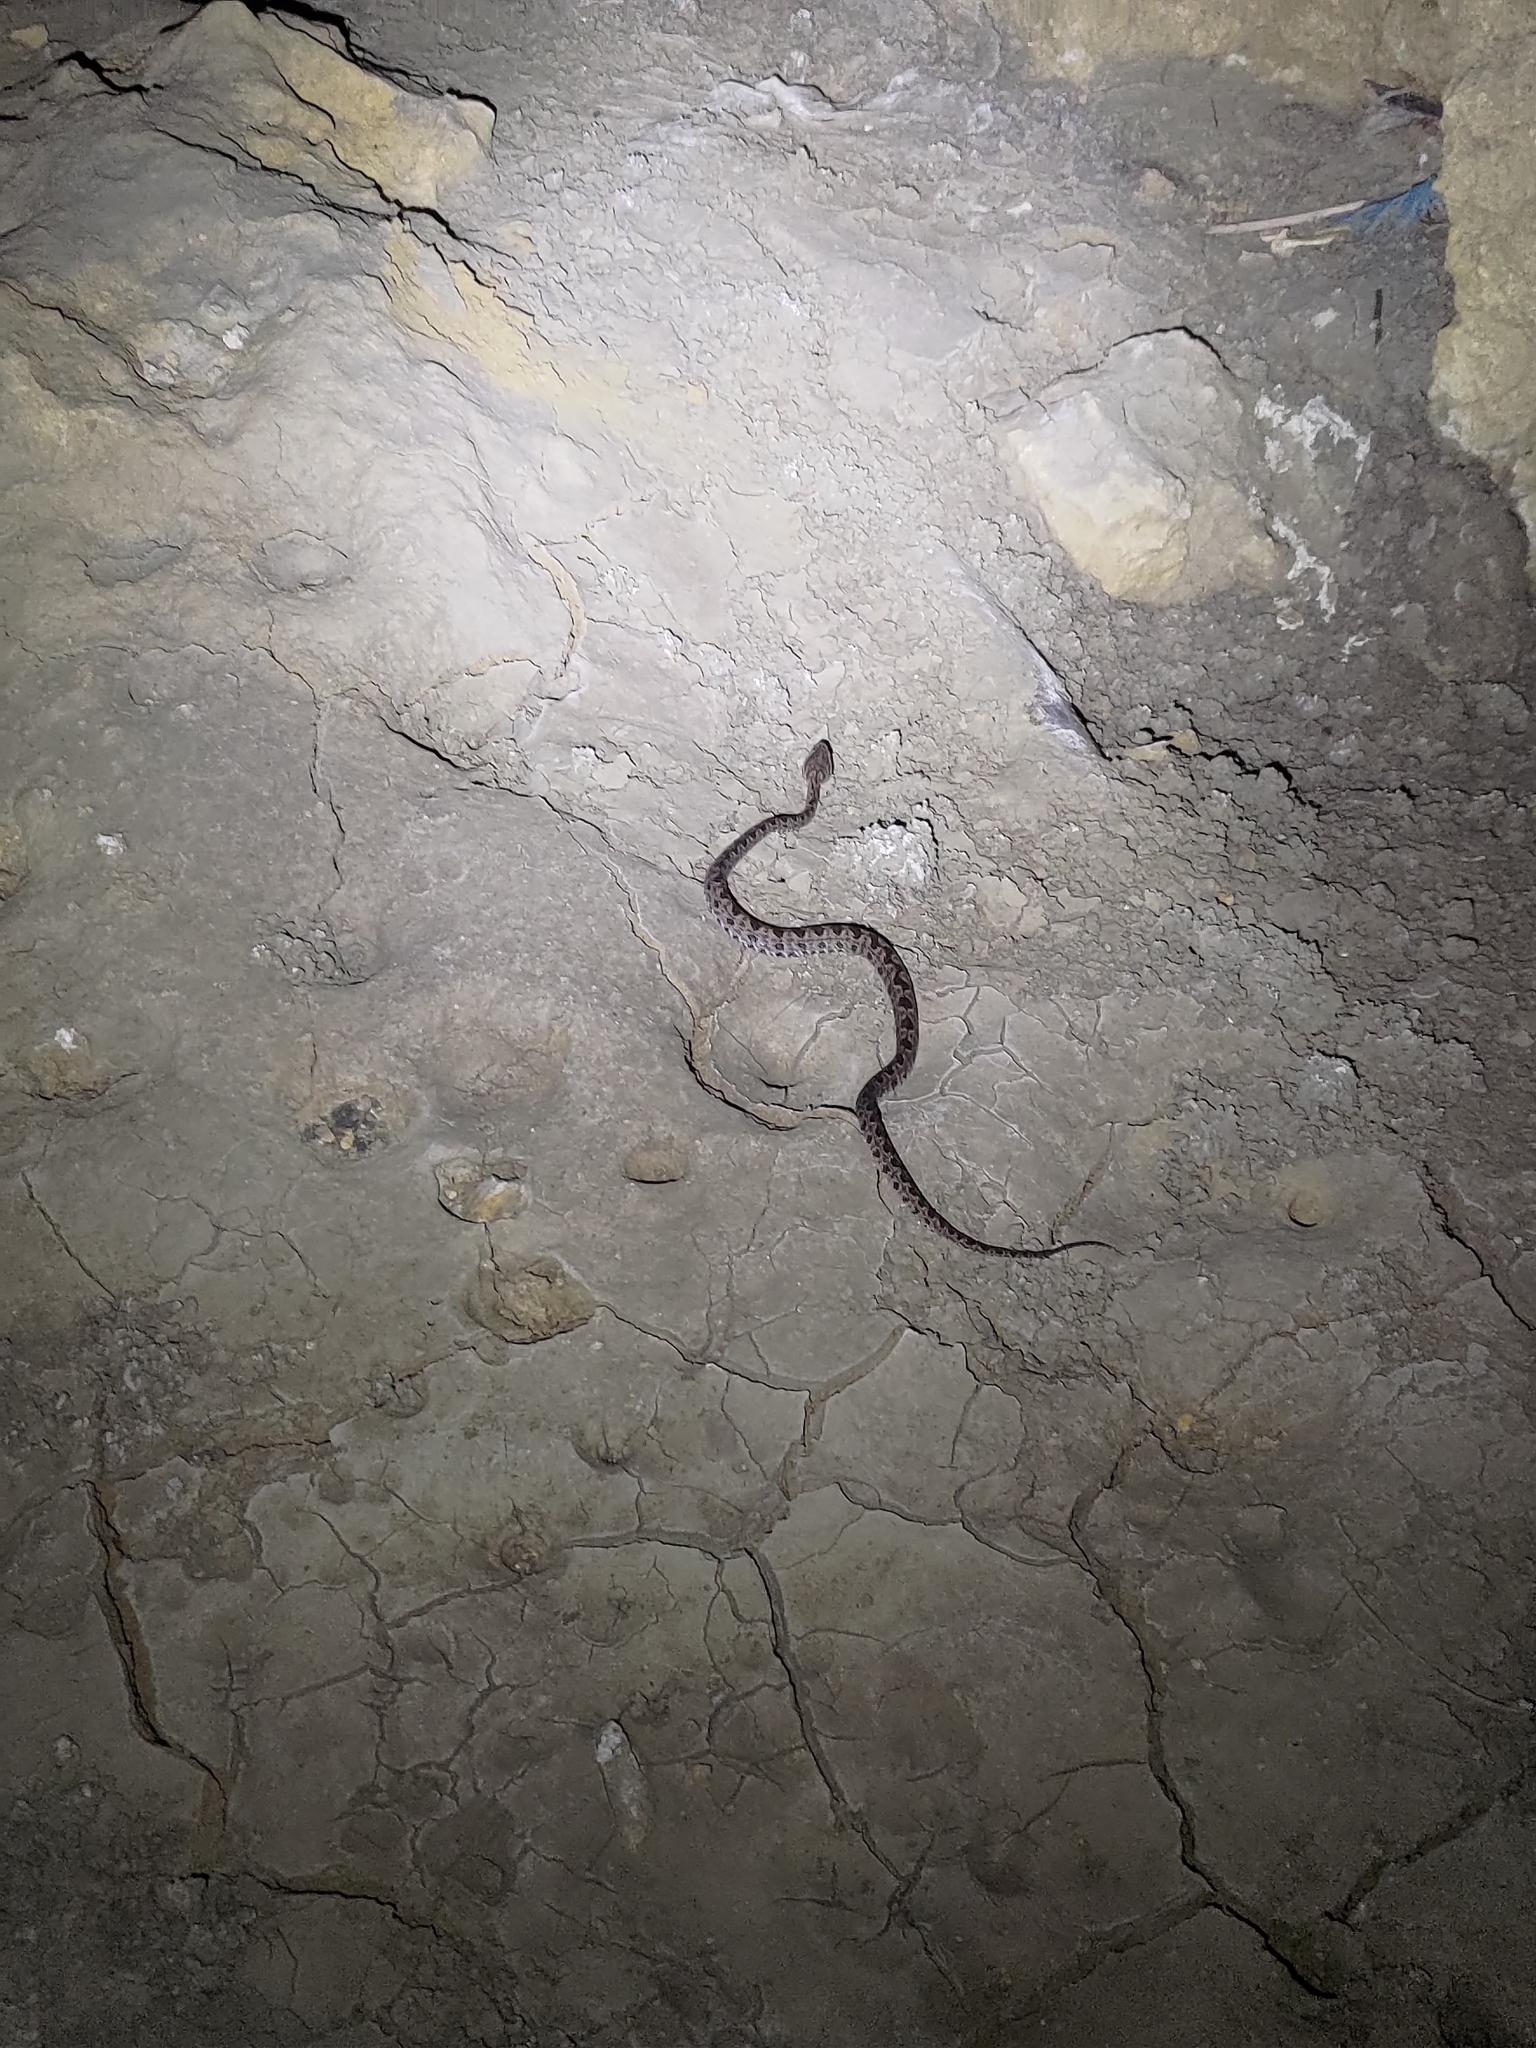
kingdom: Animalia
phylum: Chordata
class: Squamata
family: Viperidae
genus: Protobothrops
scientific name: Protobothrops mucrosquamatus
